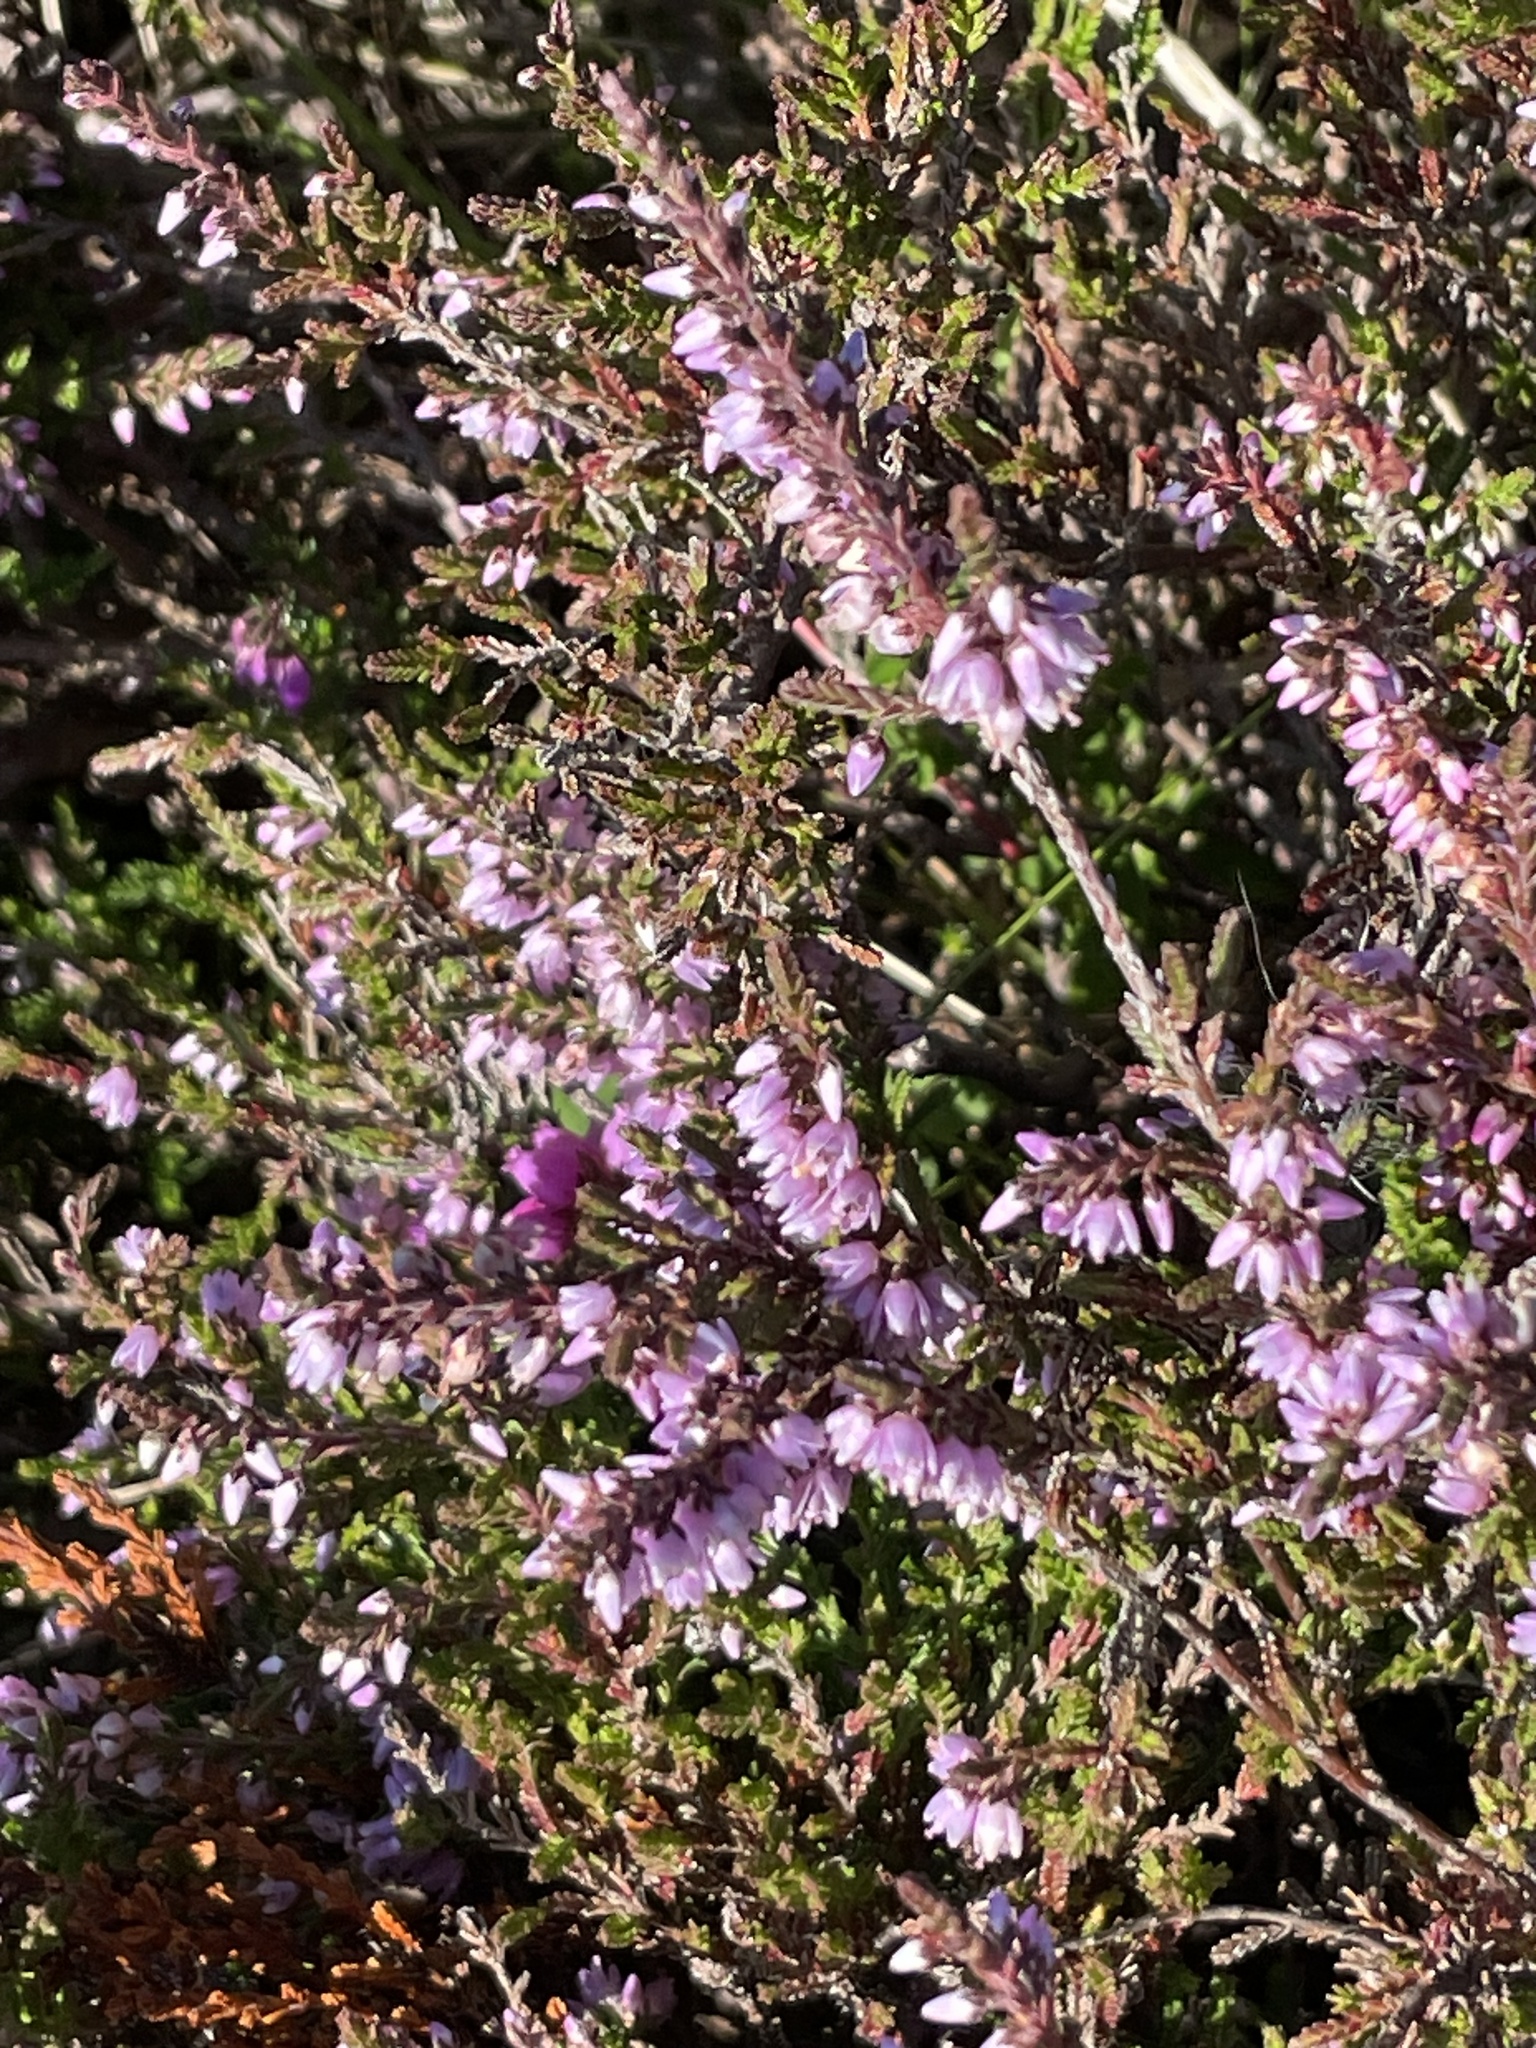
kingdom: Plantae
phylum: Tracheophyta
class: Magnoliopsida
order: Ericales
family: Ericaceae
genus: Calluna
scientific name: Calluna vulgaris
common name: Heather
